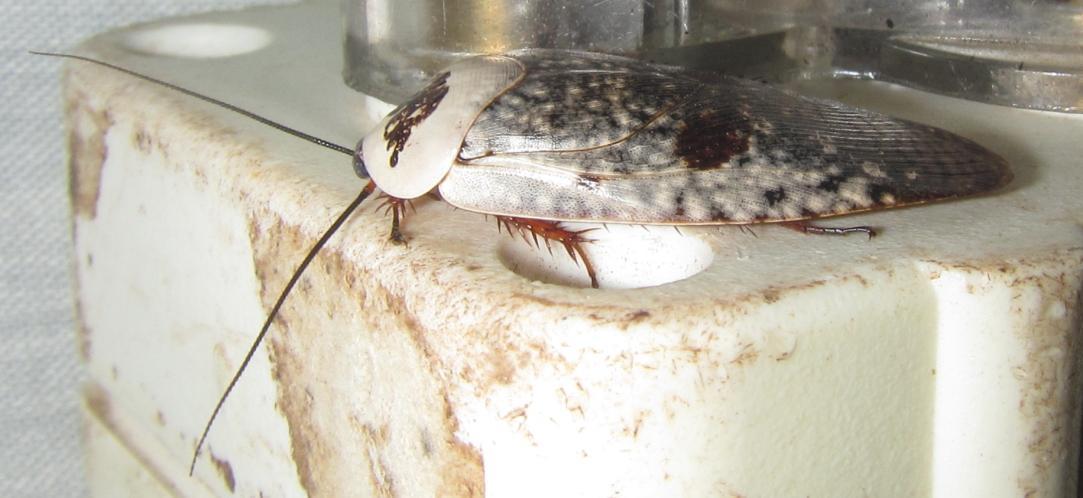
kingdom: Animalia
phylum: Arthropoda
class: Insecta
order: Blattodea
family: Blaberidae
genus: Gyna
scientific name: Gyna caffrorum
